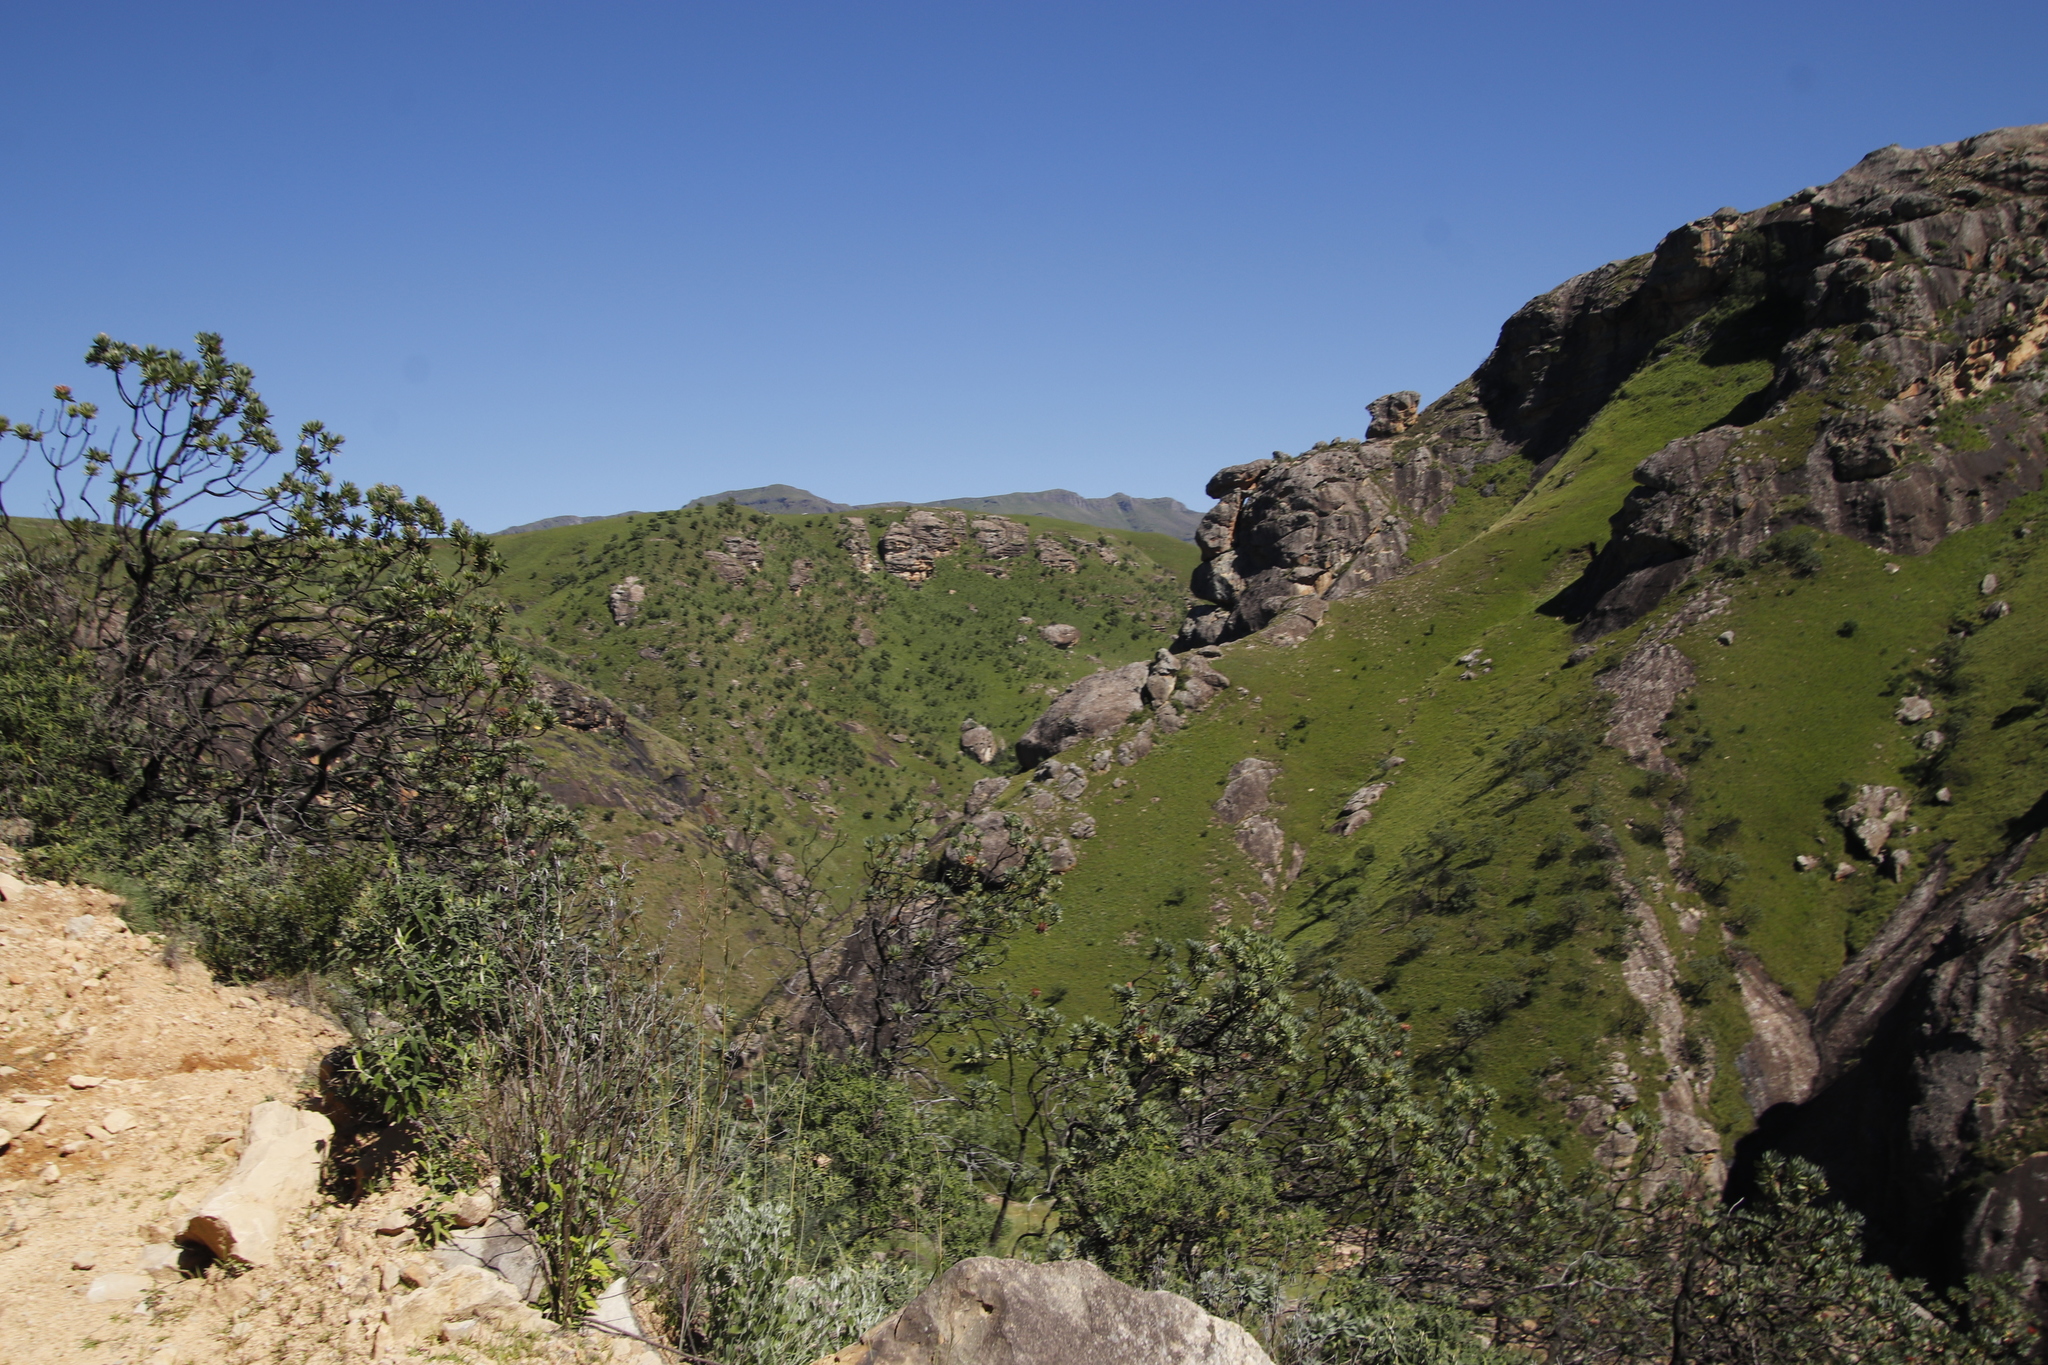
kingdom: Plantae
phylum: Tracheophyta
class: Magnoliopsida
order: Proteales
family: Proteaceae
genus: Protea
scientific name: Protea roupelliae
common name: Silver sugarbush
